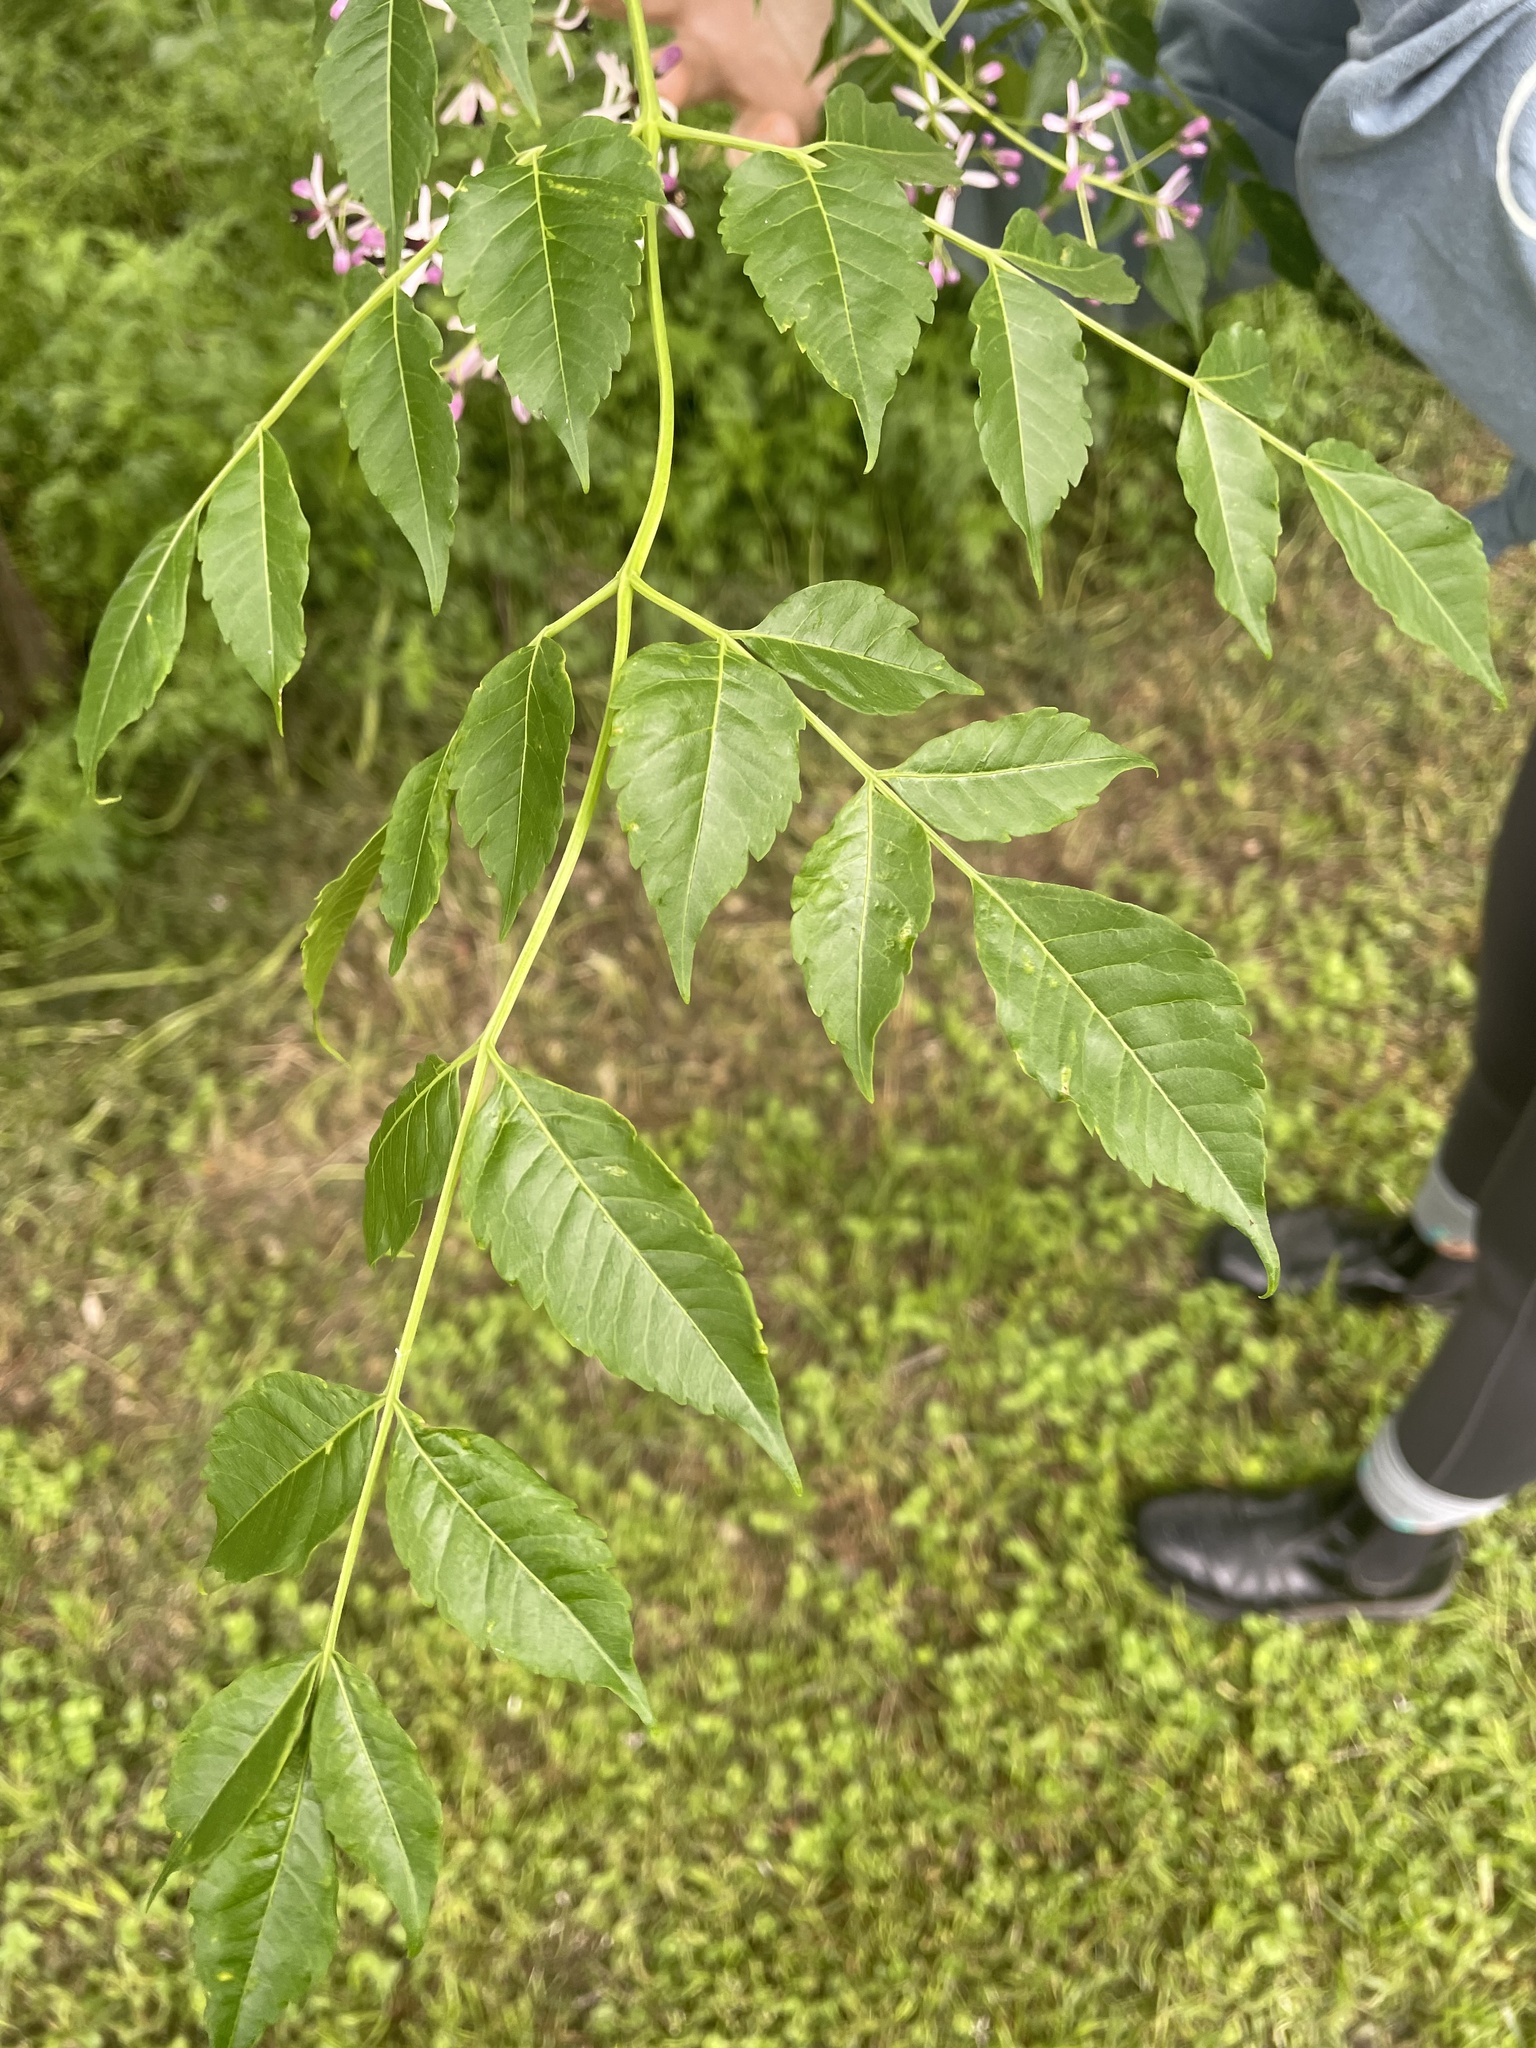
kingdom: Plantae
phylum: Tracheophyta
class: Magnoliopsida
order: Sapindales
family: Meliaceae
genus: Melia
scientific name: Melia azedarach
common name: Chinaberrytree
